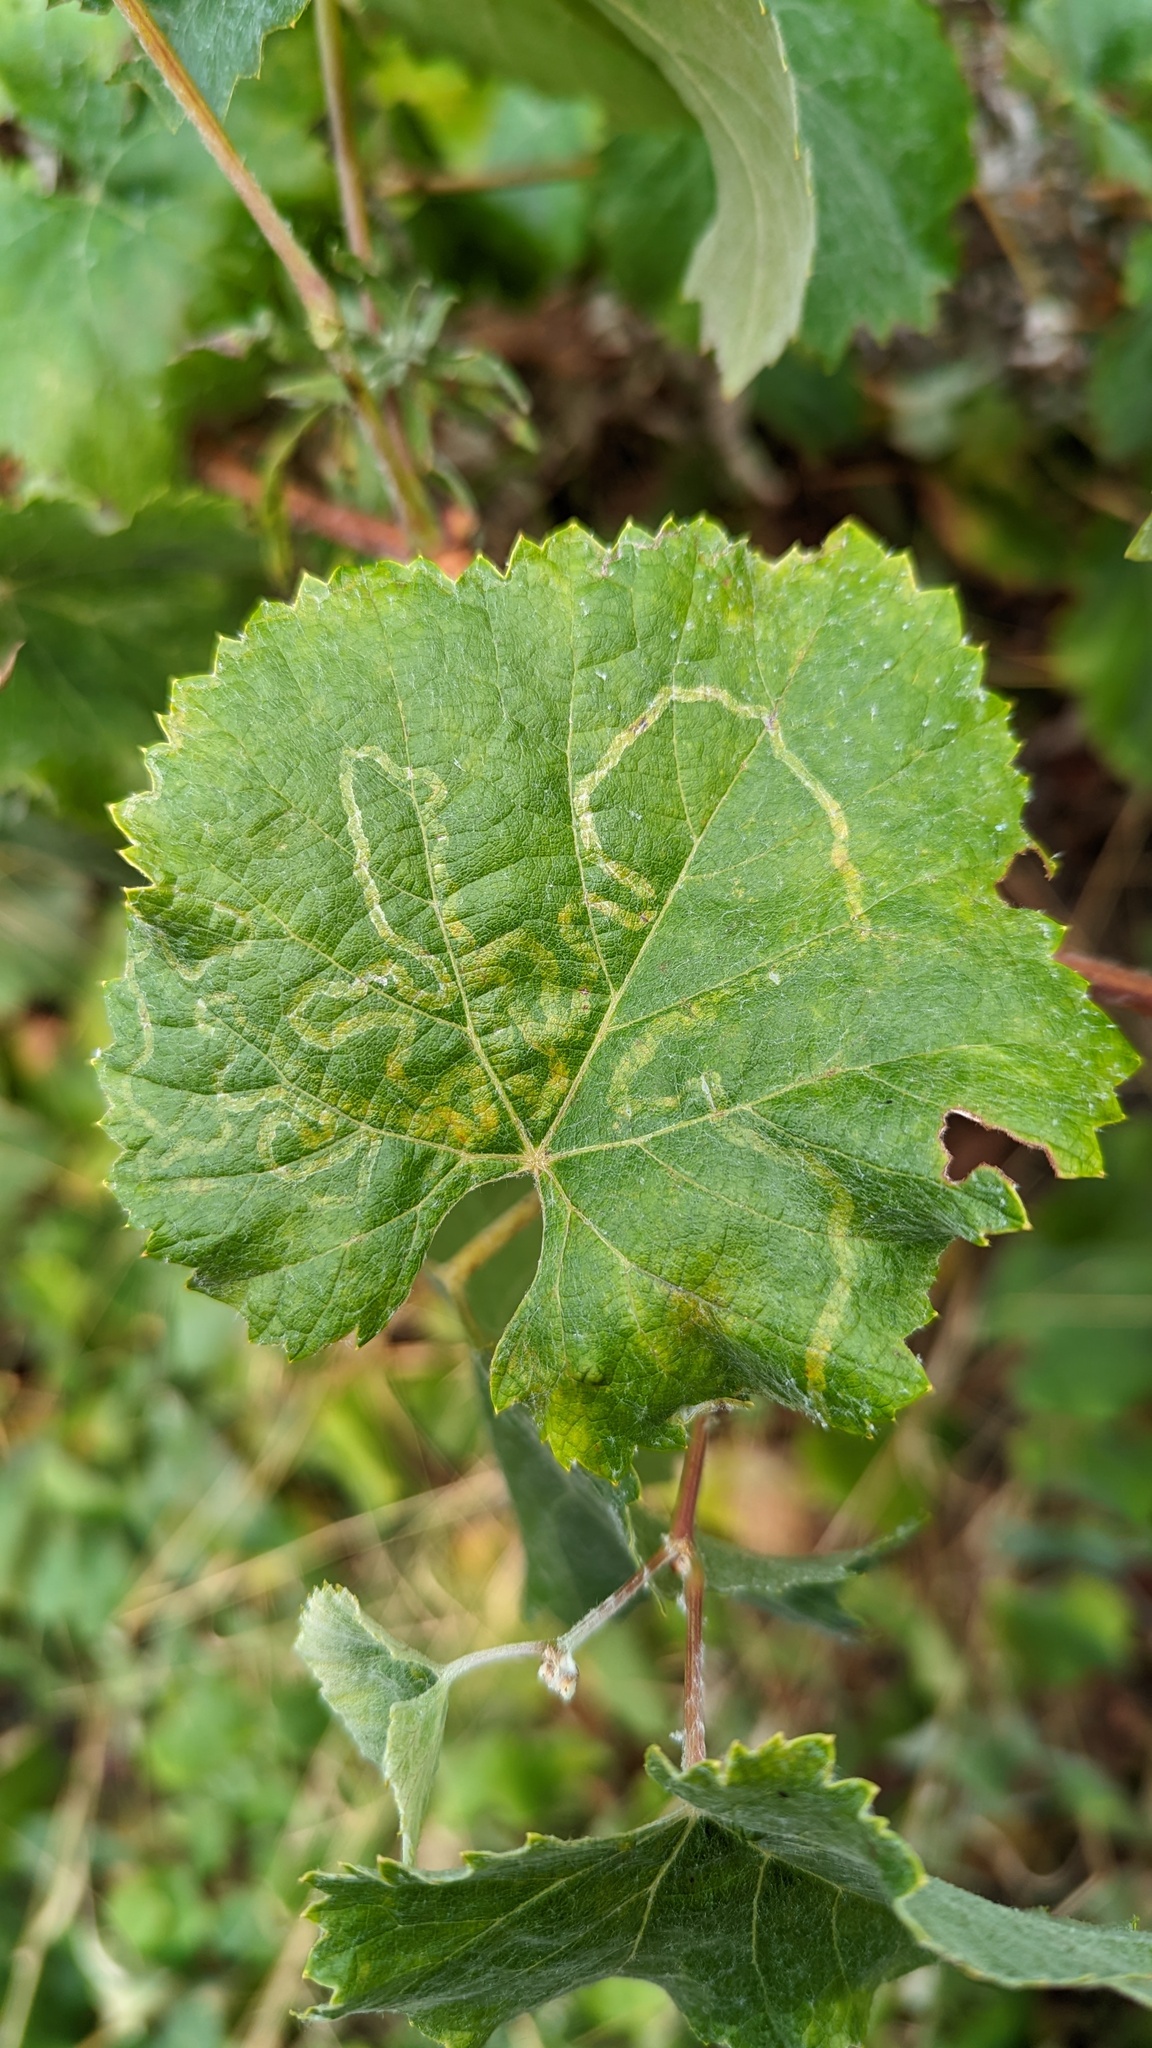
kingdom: Animalia
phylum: Arthropoda
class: Insecta
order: Lepidoptera
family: Gracillariidae
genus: Phyllocnistis
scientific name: Phyllocnistis vitegenella
